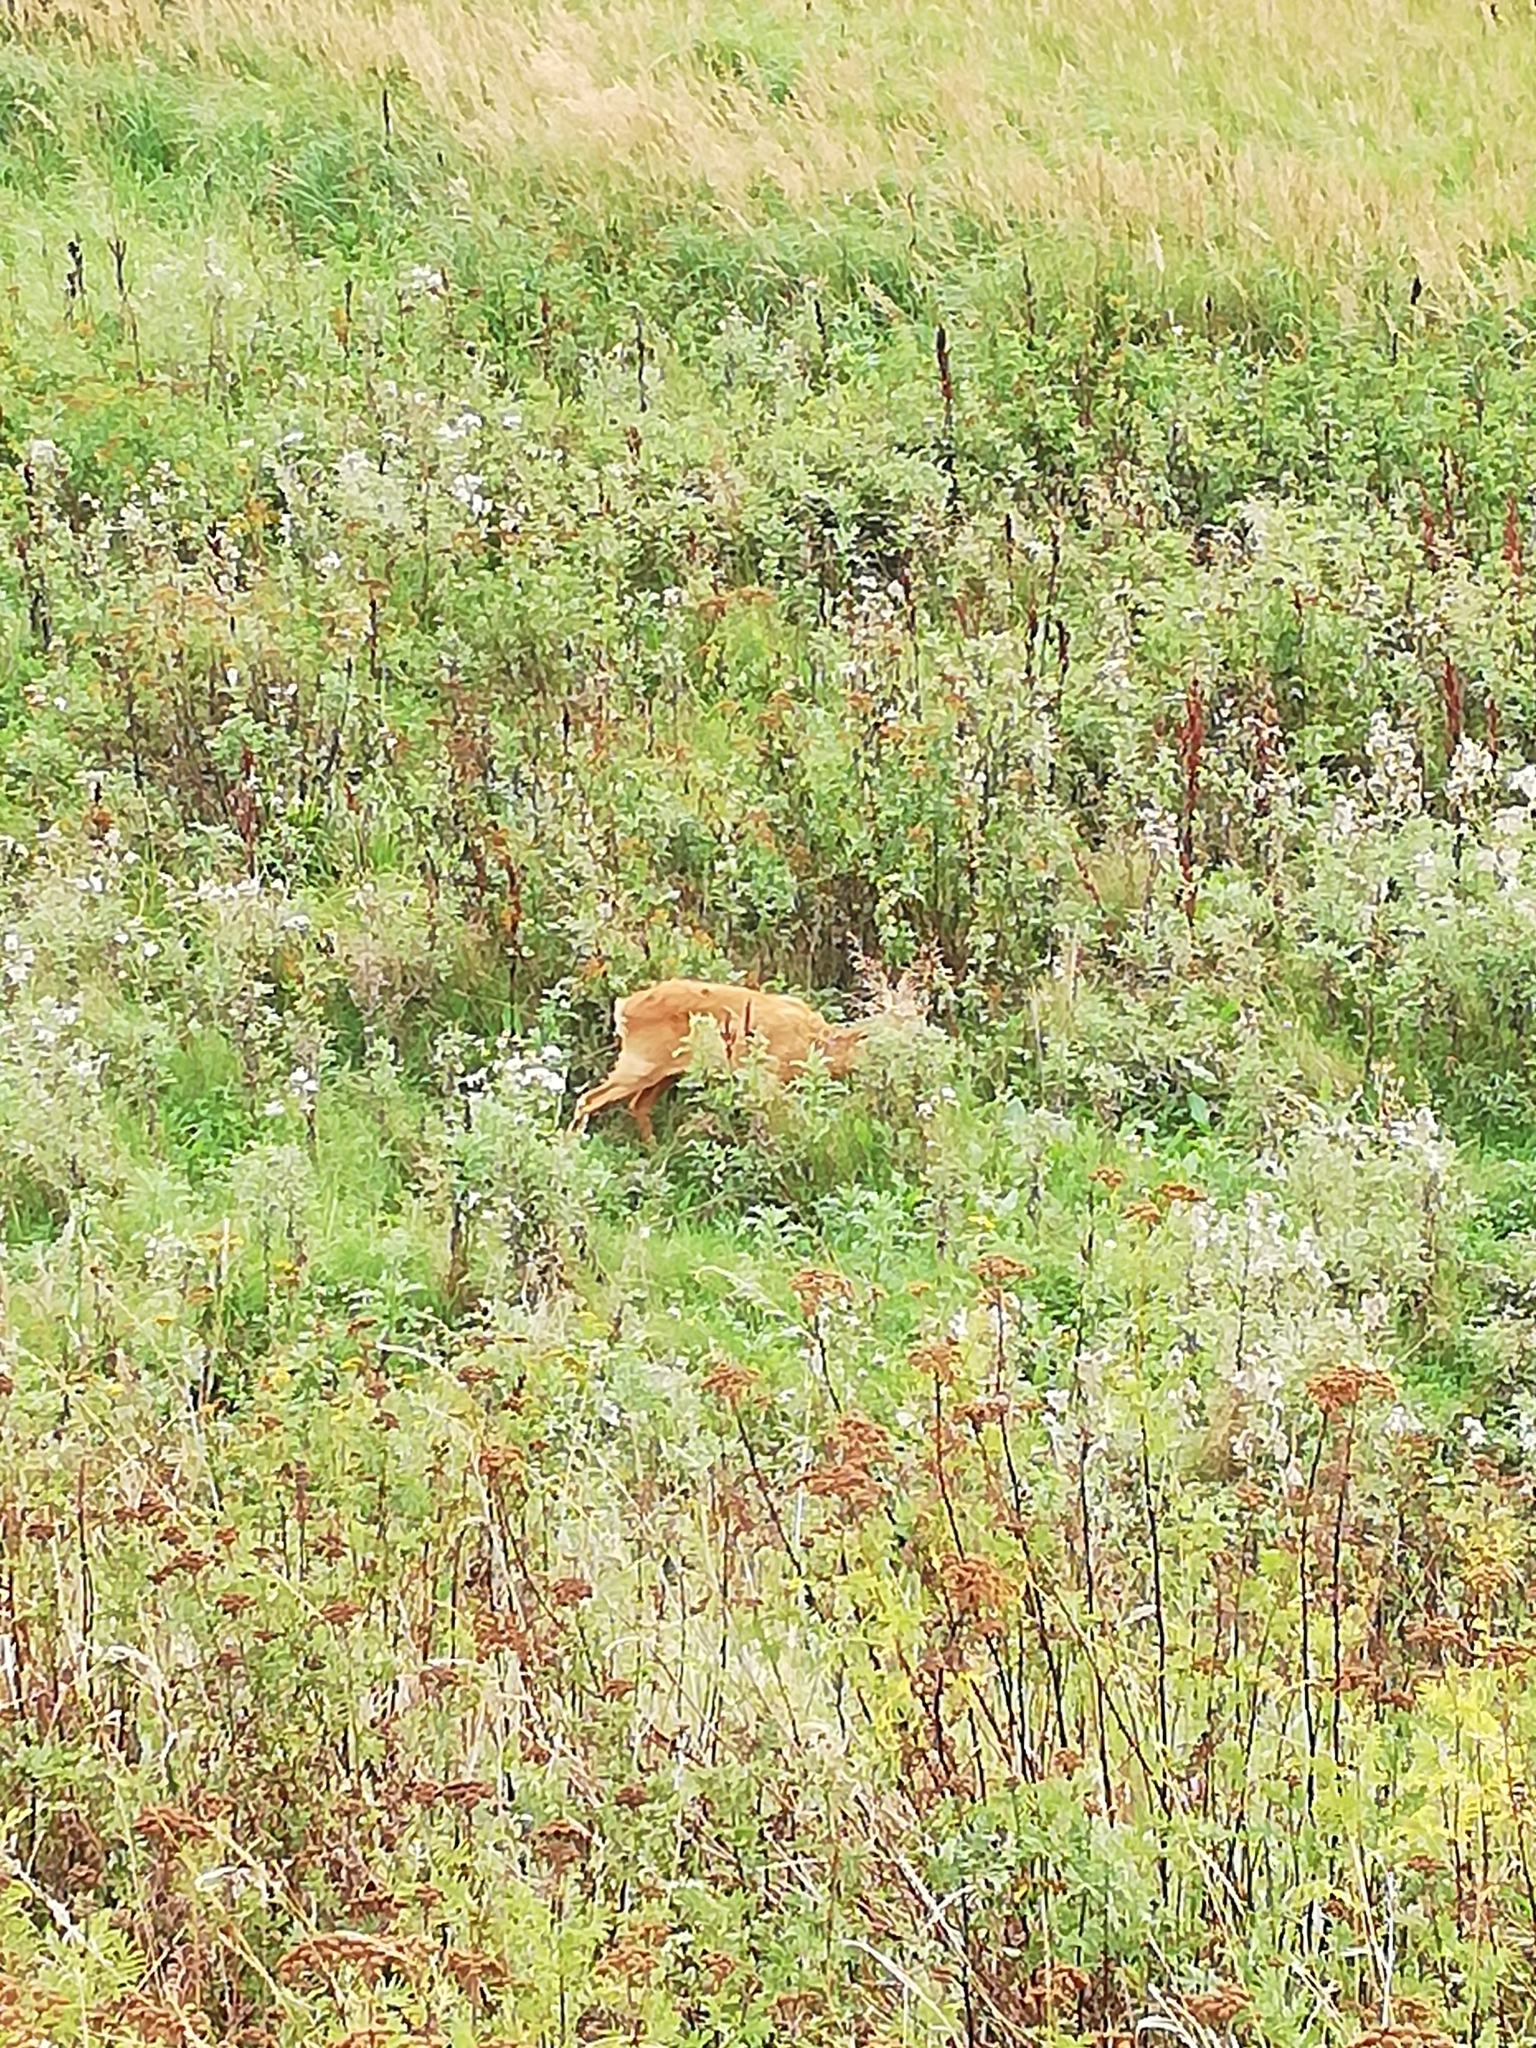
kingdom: Animalia
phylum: Chordata
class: Mammalia
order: Artiodactyla
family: Cervidae
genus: Capreolus
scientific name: Capreolus capreolus
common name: Western roe deer
